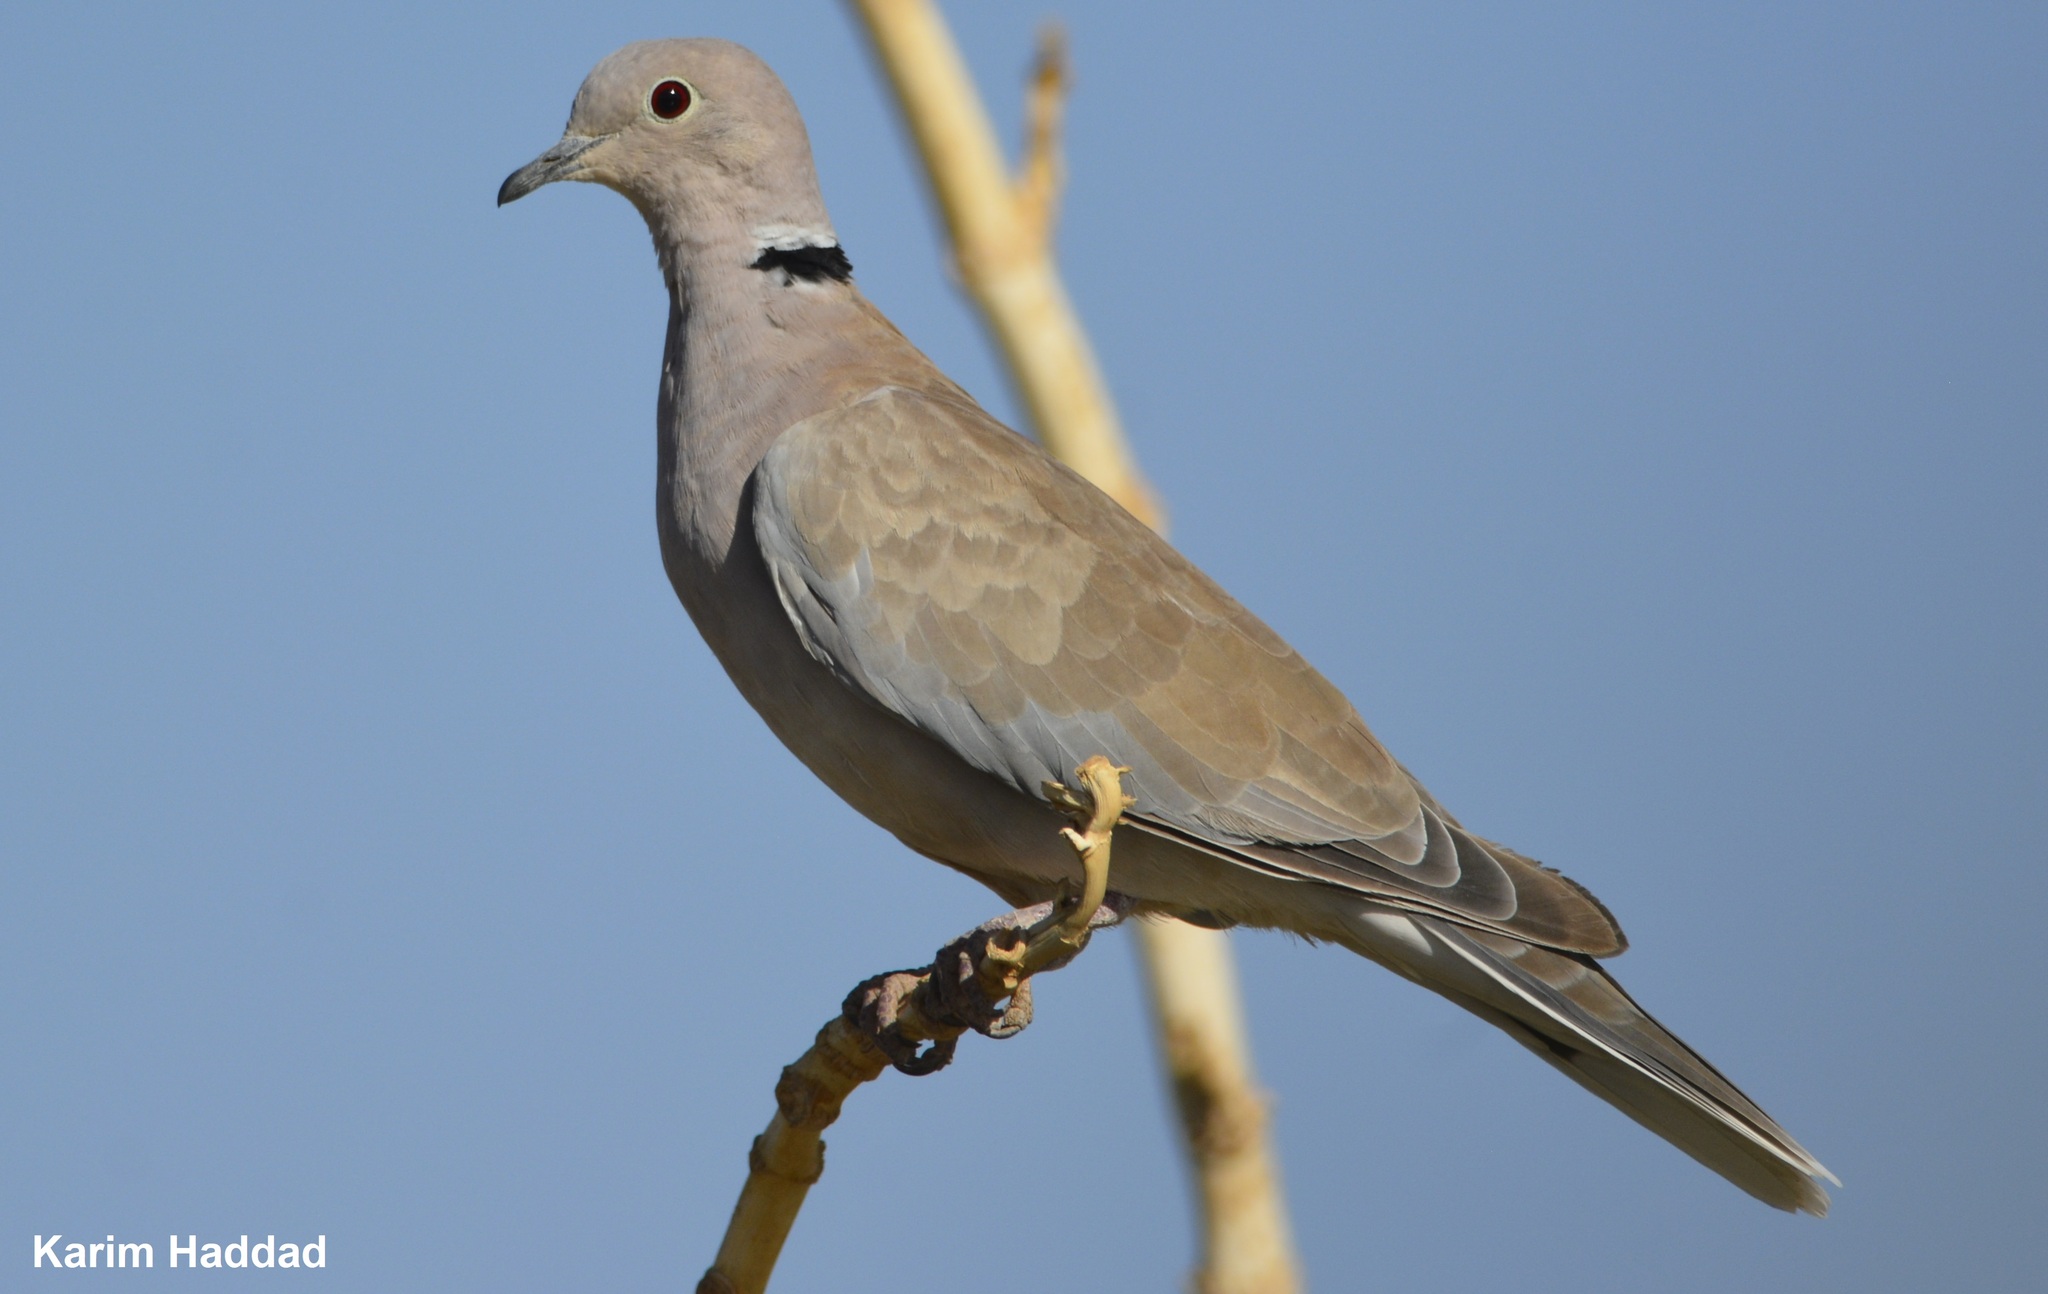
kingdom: Animalia
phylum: Chordata
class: Aves
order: Columbiformes
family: Columbidae
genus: Streptopelia
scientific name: Streptopelia roseogrisea
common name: African collared dove
